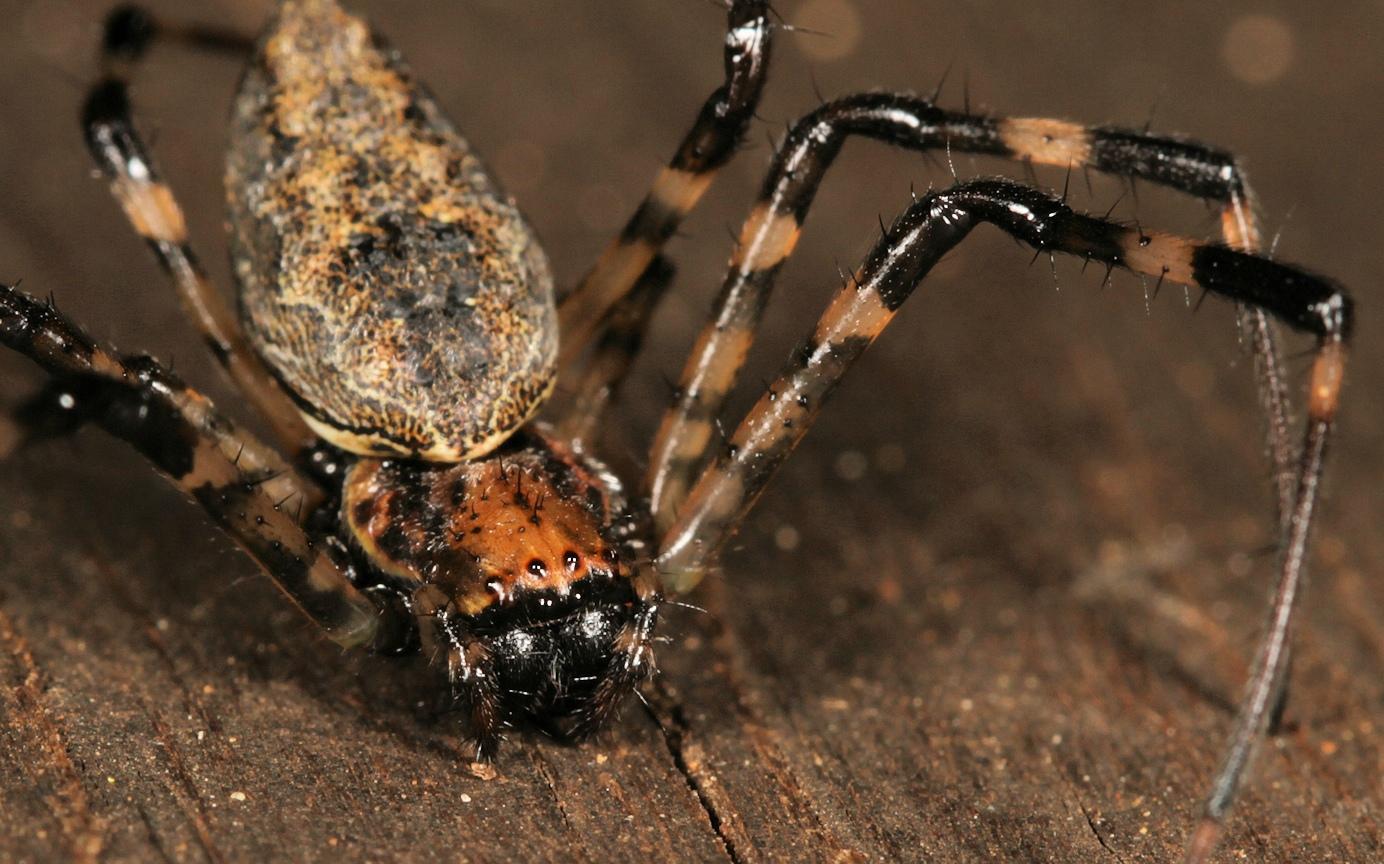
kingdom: Animalia
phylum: Arthropoda
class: Arachnida
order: Araneae
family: Araneidae
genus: Nephilingis
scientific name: Nephilingis cruentata
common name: African hermit spider
